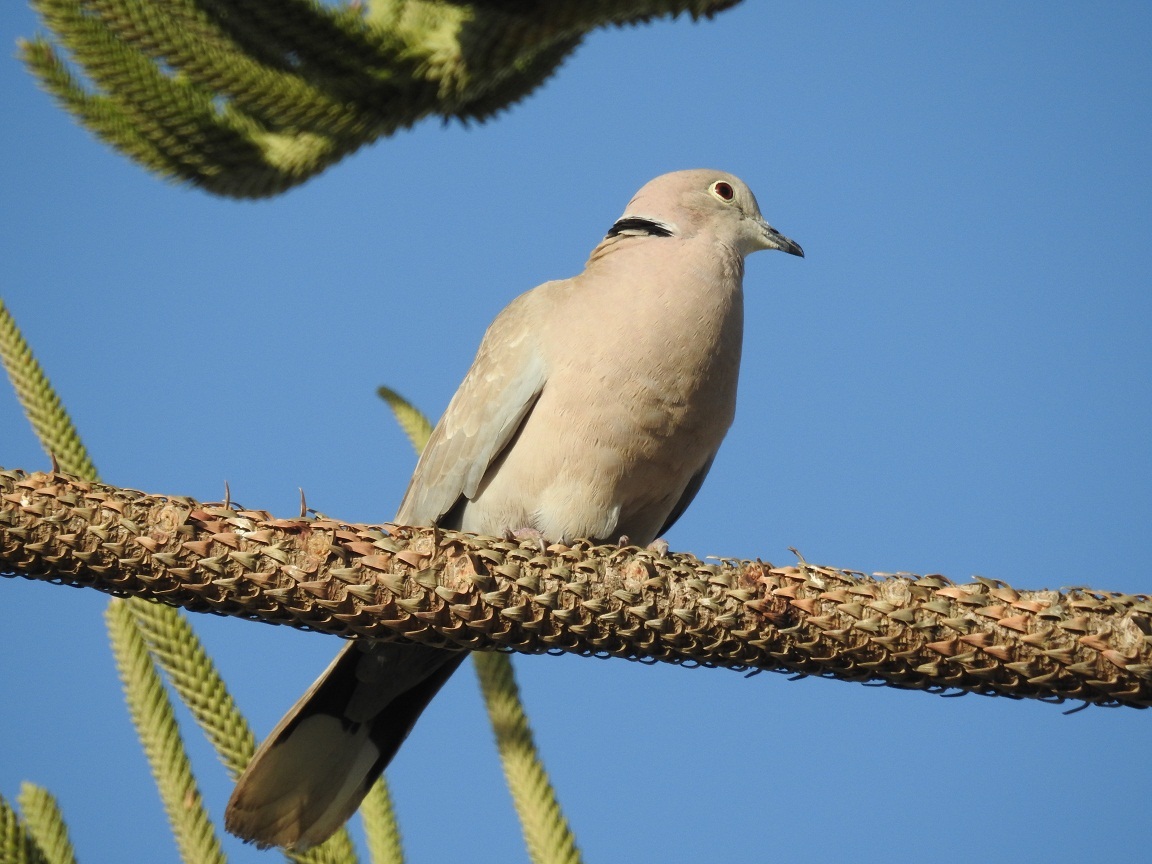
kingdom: Animalia
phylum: Chordata
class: Aves
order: Columbiformes
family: Columbidae
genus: Streptopelia
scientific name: Streptopelia decaocto
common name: Eurasian collared dove
